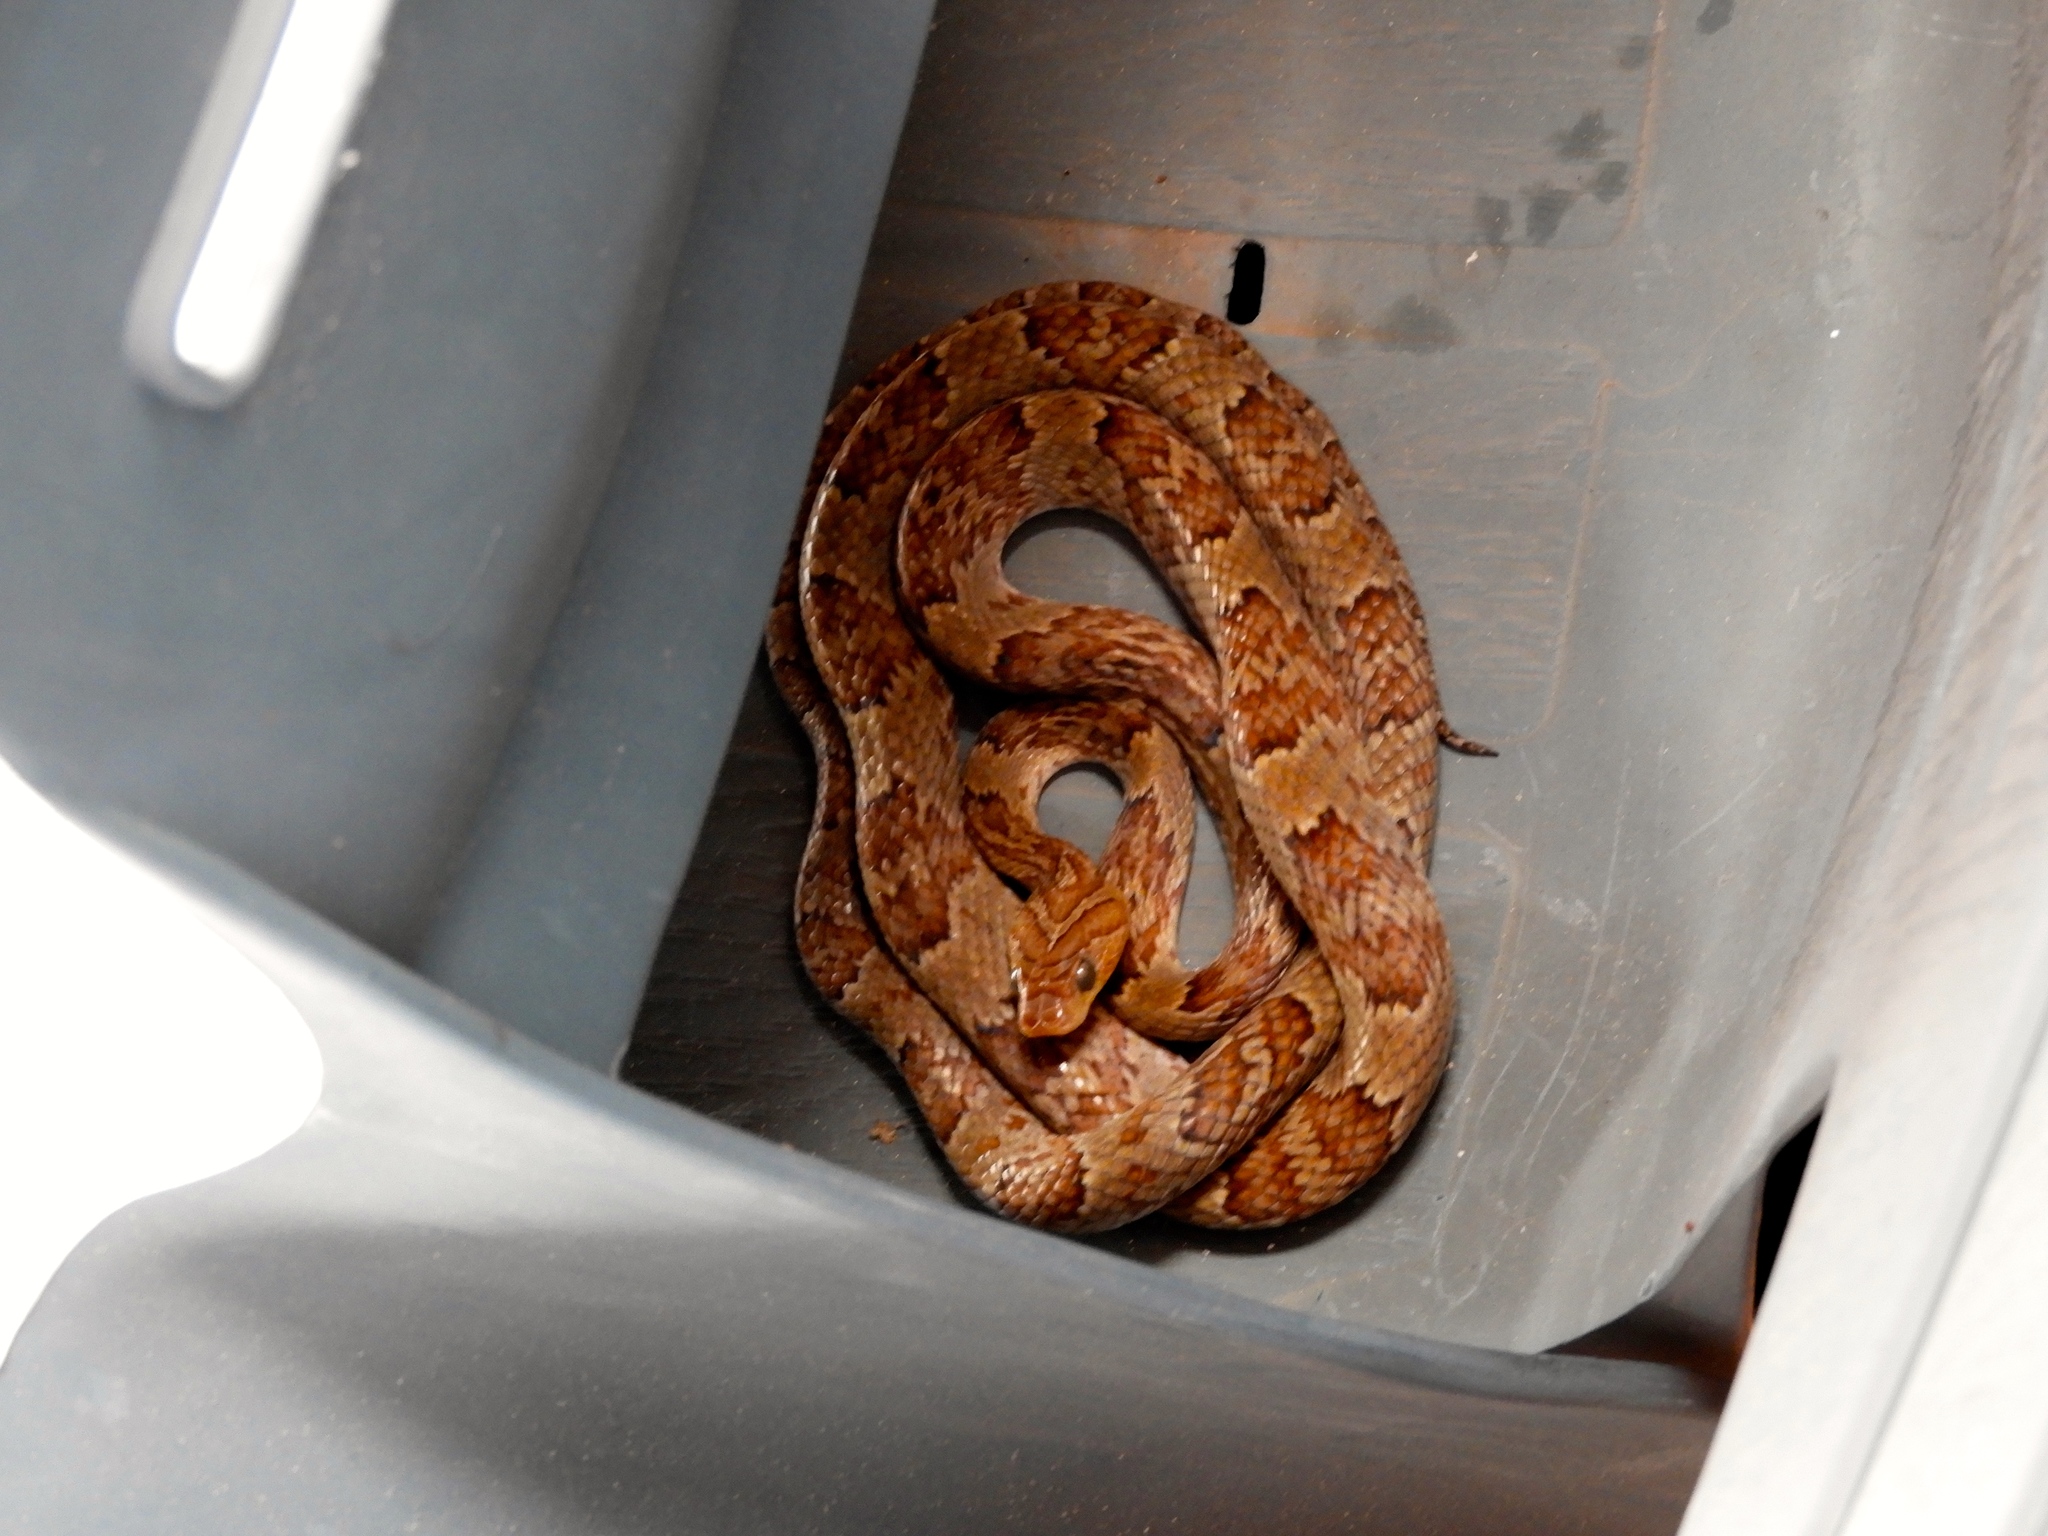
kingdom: Animalia
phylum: Chordata
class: Squamata
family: Colubridae
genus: Trimorphodon
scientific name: Trimorphodon paucimaculatus
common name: Sinaloan lyresnake
